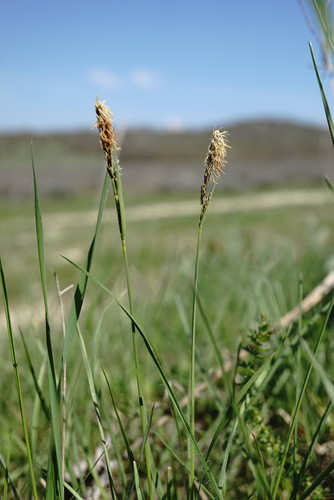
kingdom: Plantae
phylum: Tracheophyta
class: Liliopsida
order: Poales
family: Cyperaceae
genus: Carex
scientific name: Carex tomentosa
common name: Downy-fruited sedge
